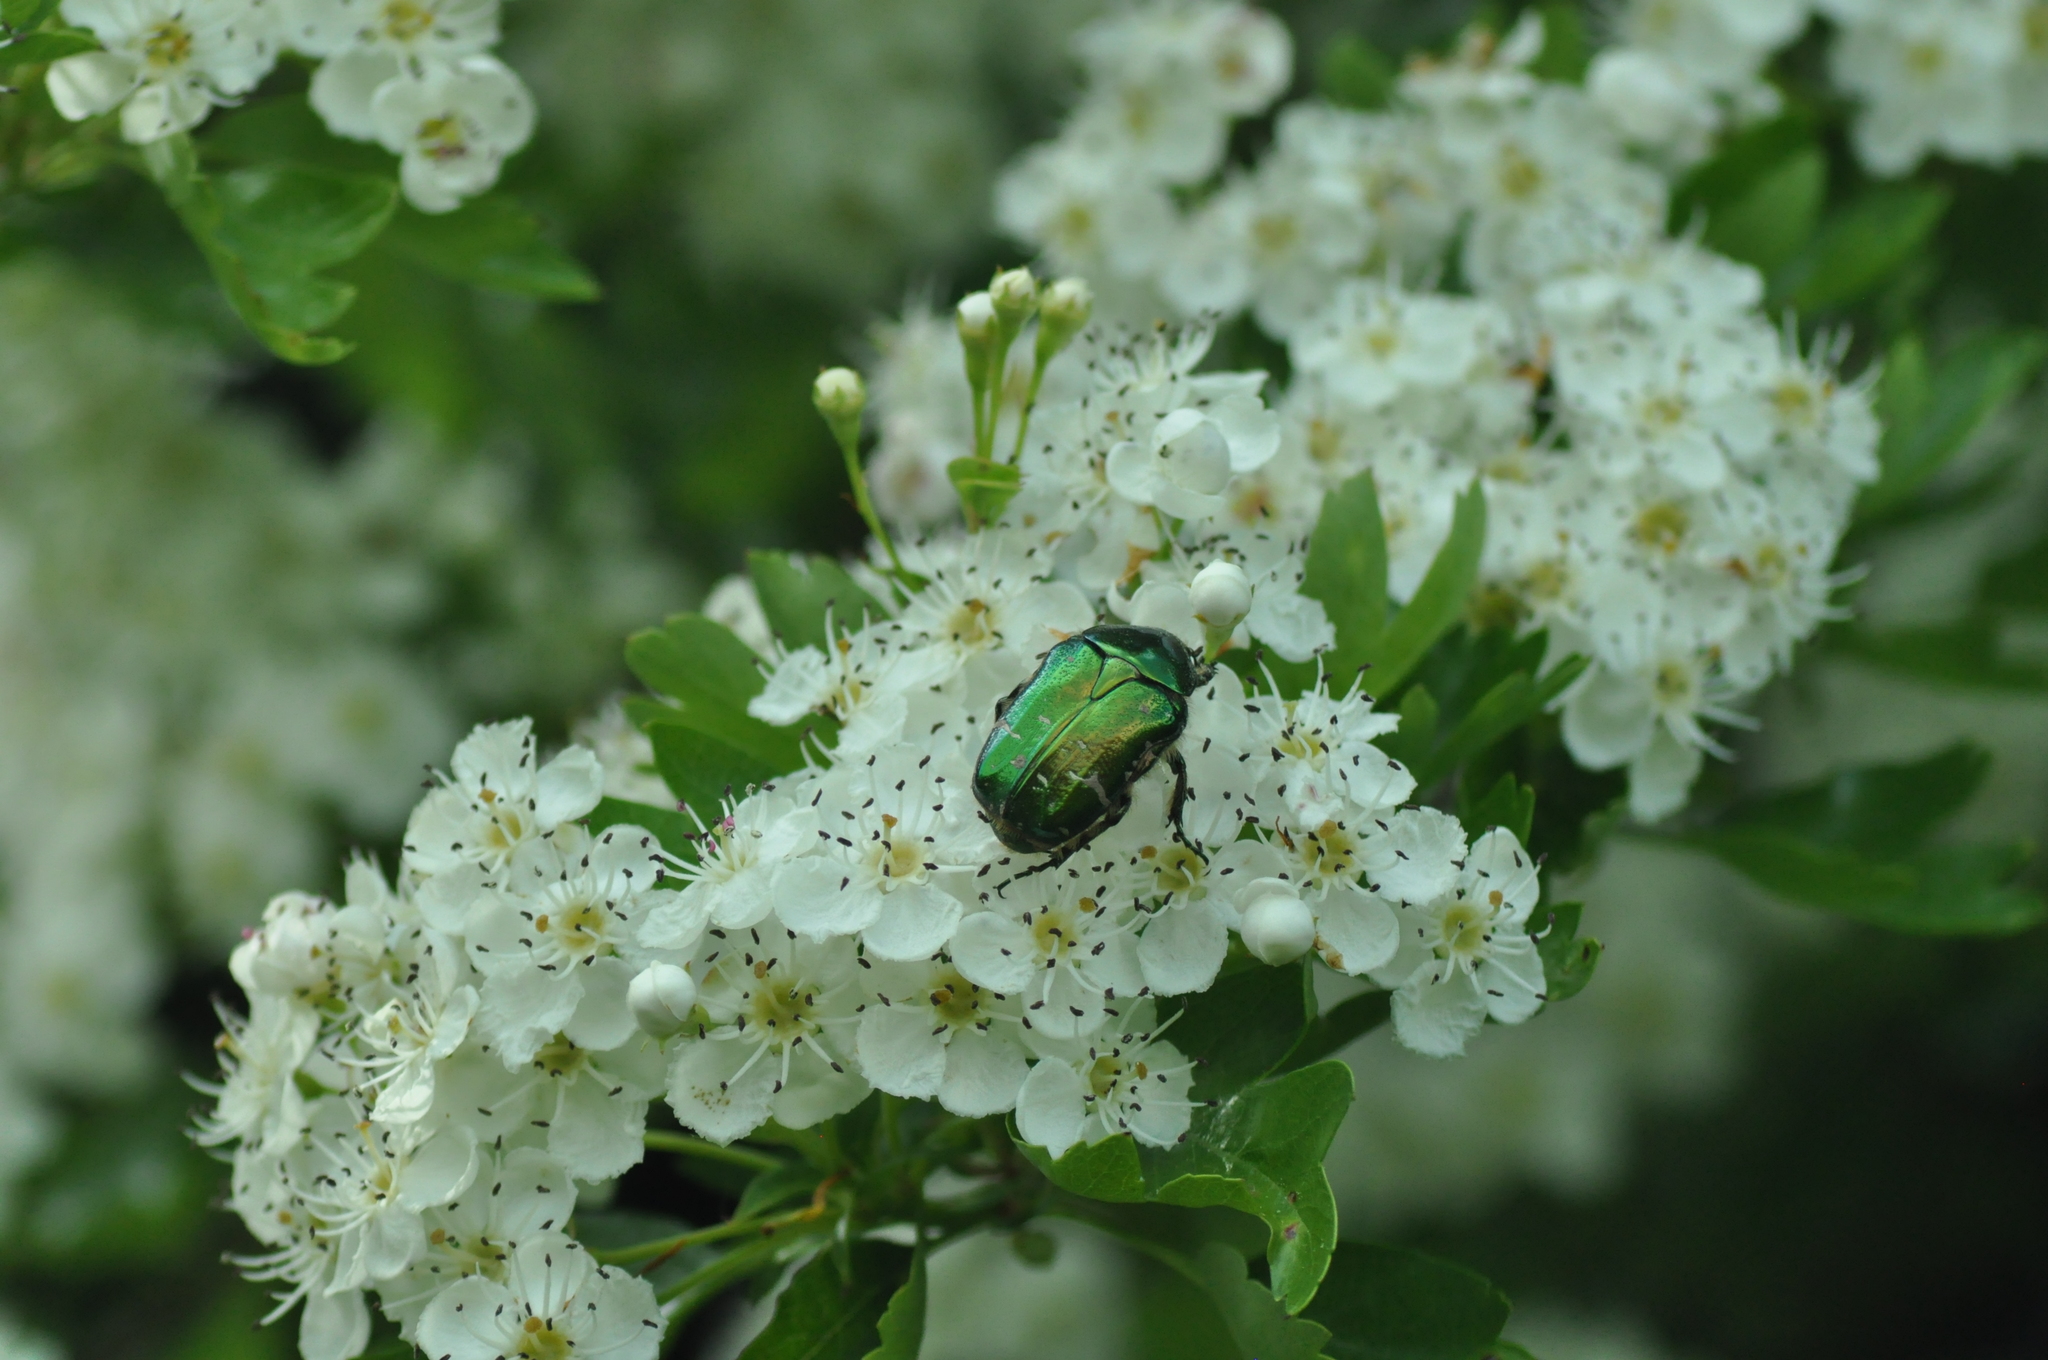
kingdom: Animalia
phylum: Arthropoda
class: Insecta
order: Coleoptera
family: Scarabaeidae
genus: Cetonia
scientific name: Cetonia aurata
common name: Rose chafer
